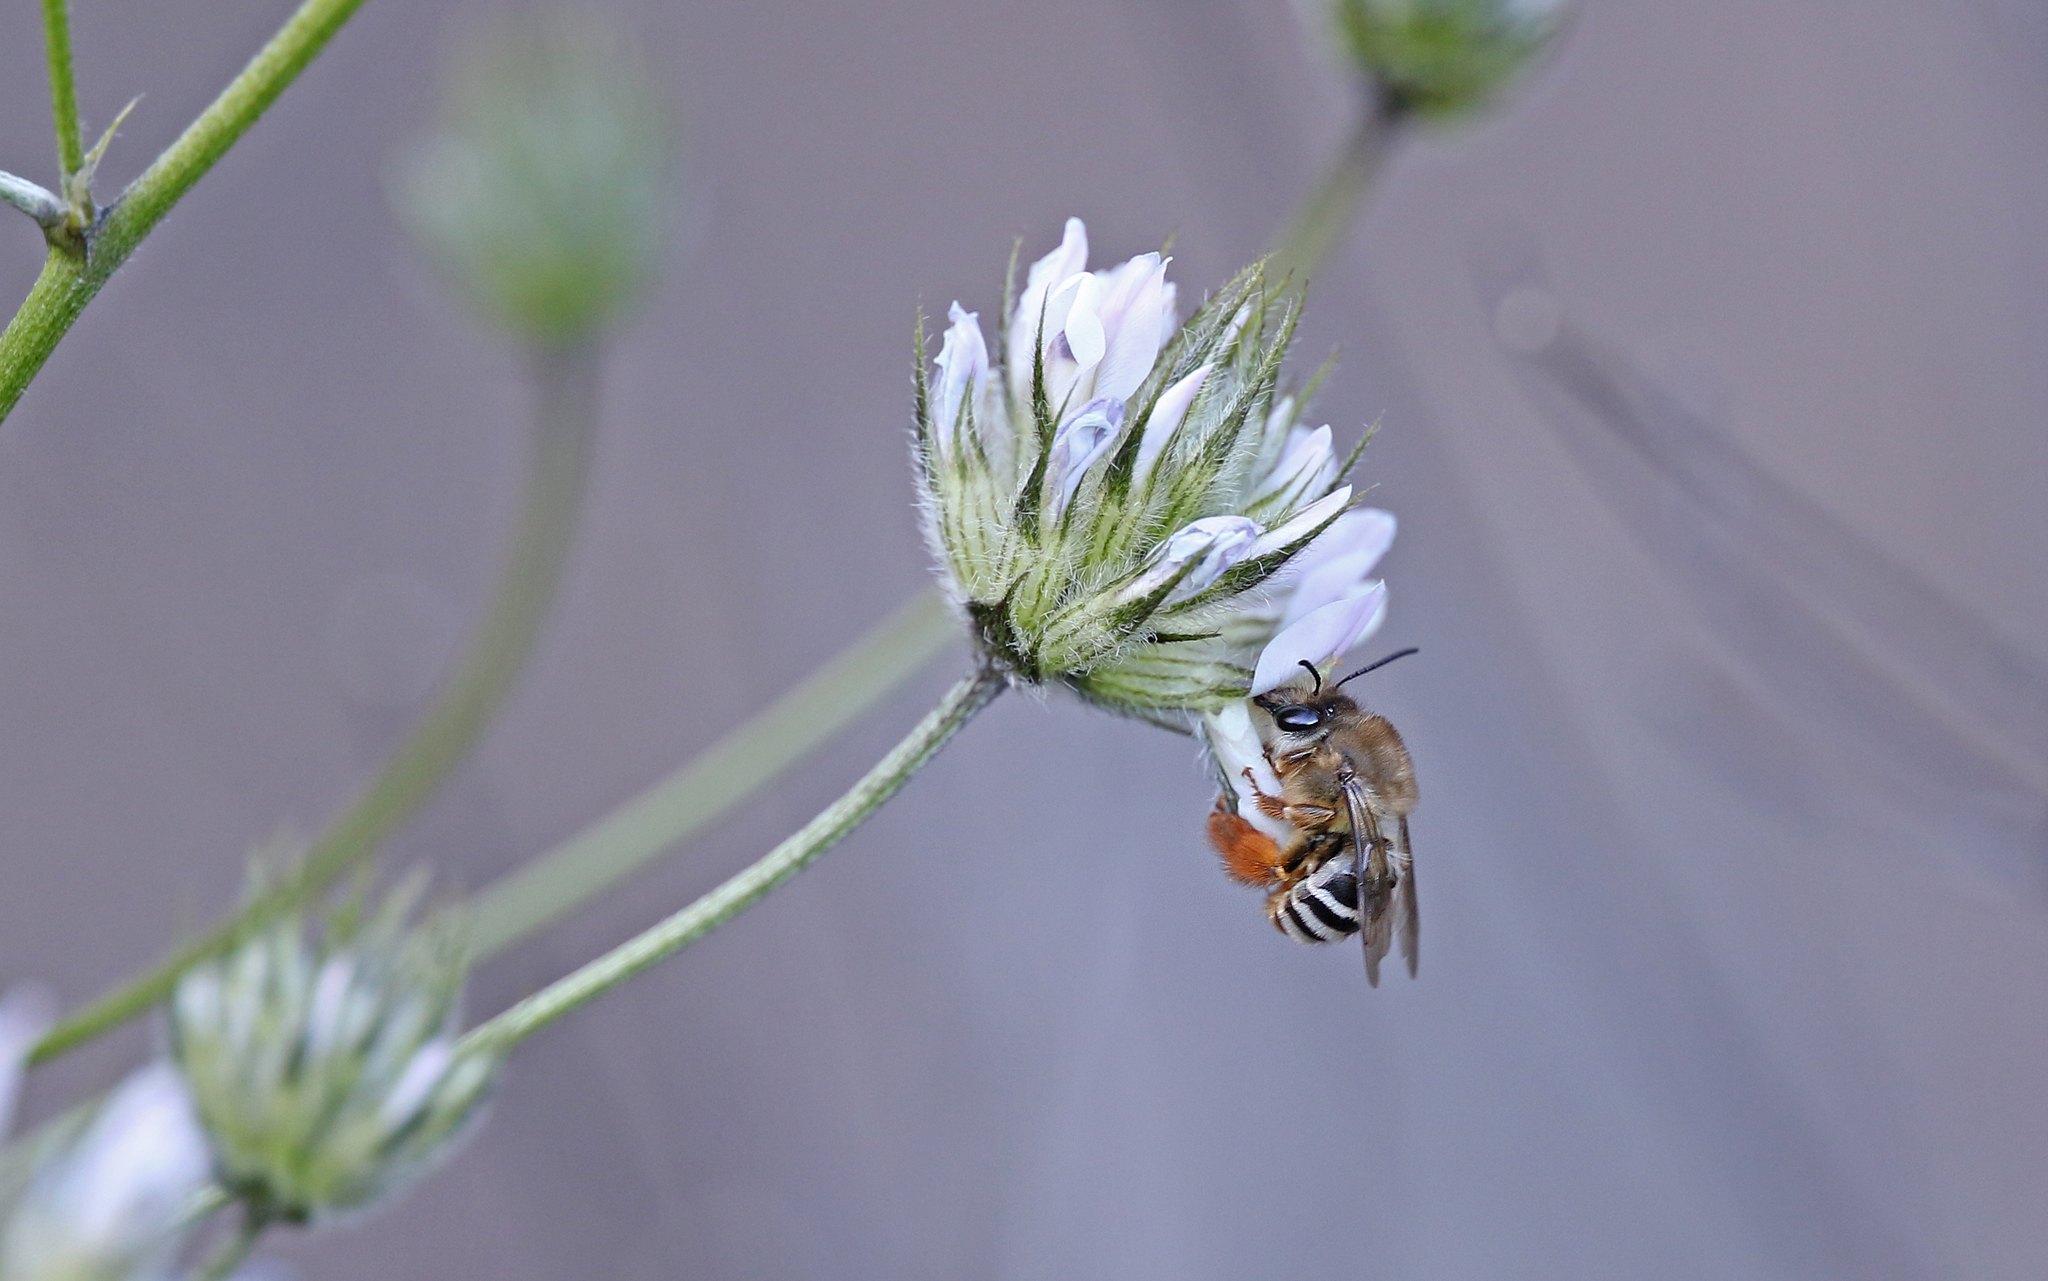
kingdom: Animalia
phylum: Arthropoda
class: Insecta
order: Hymenoptera
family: Apidae
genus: Eucera
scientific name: Eucera gracilipes
